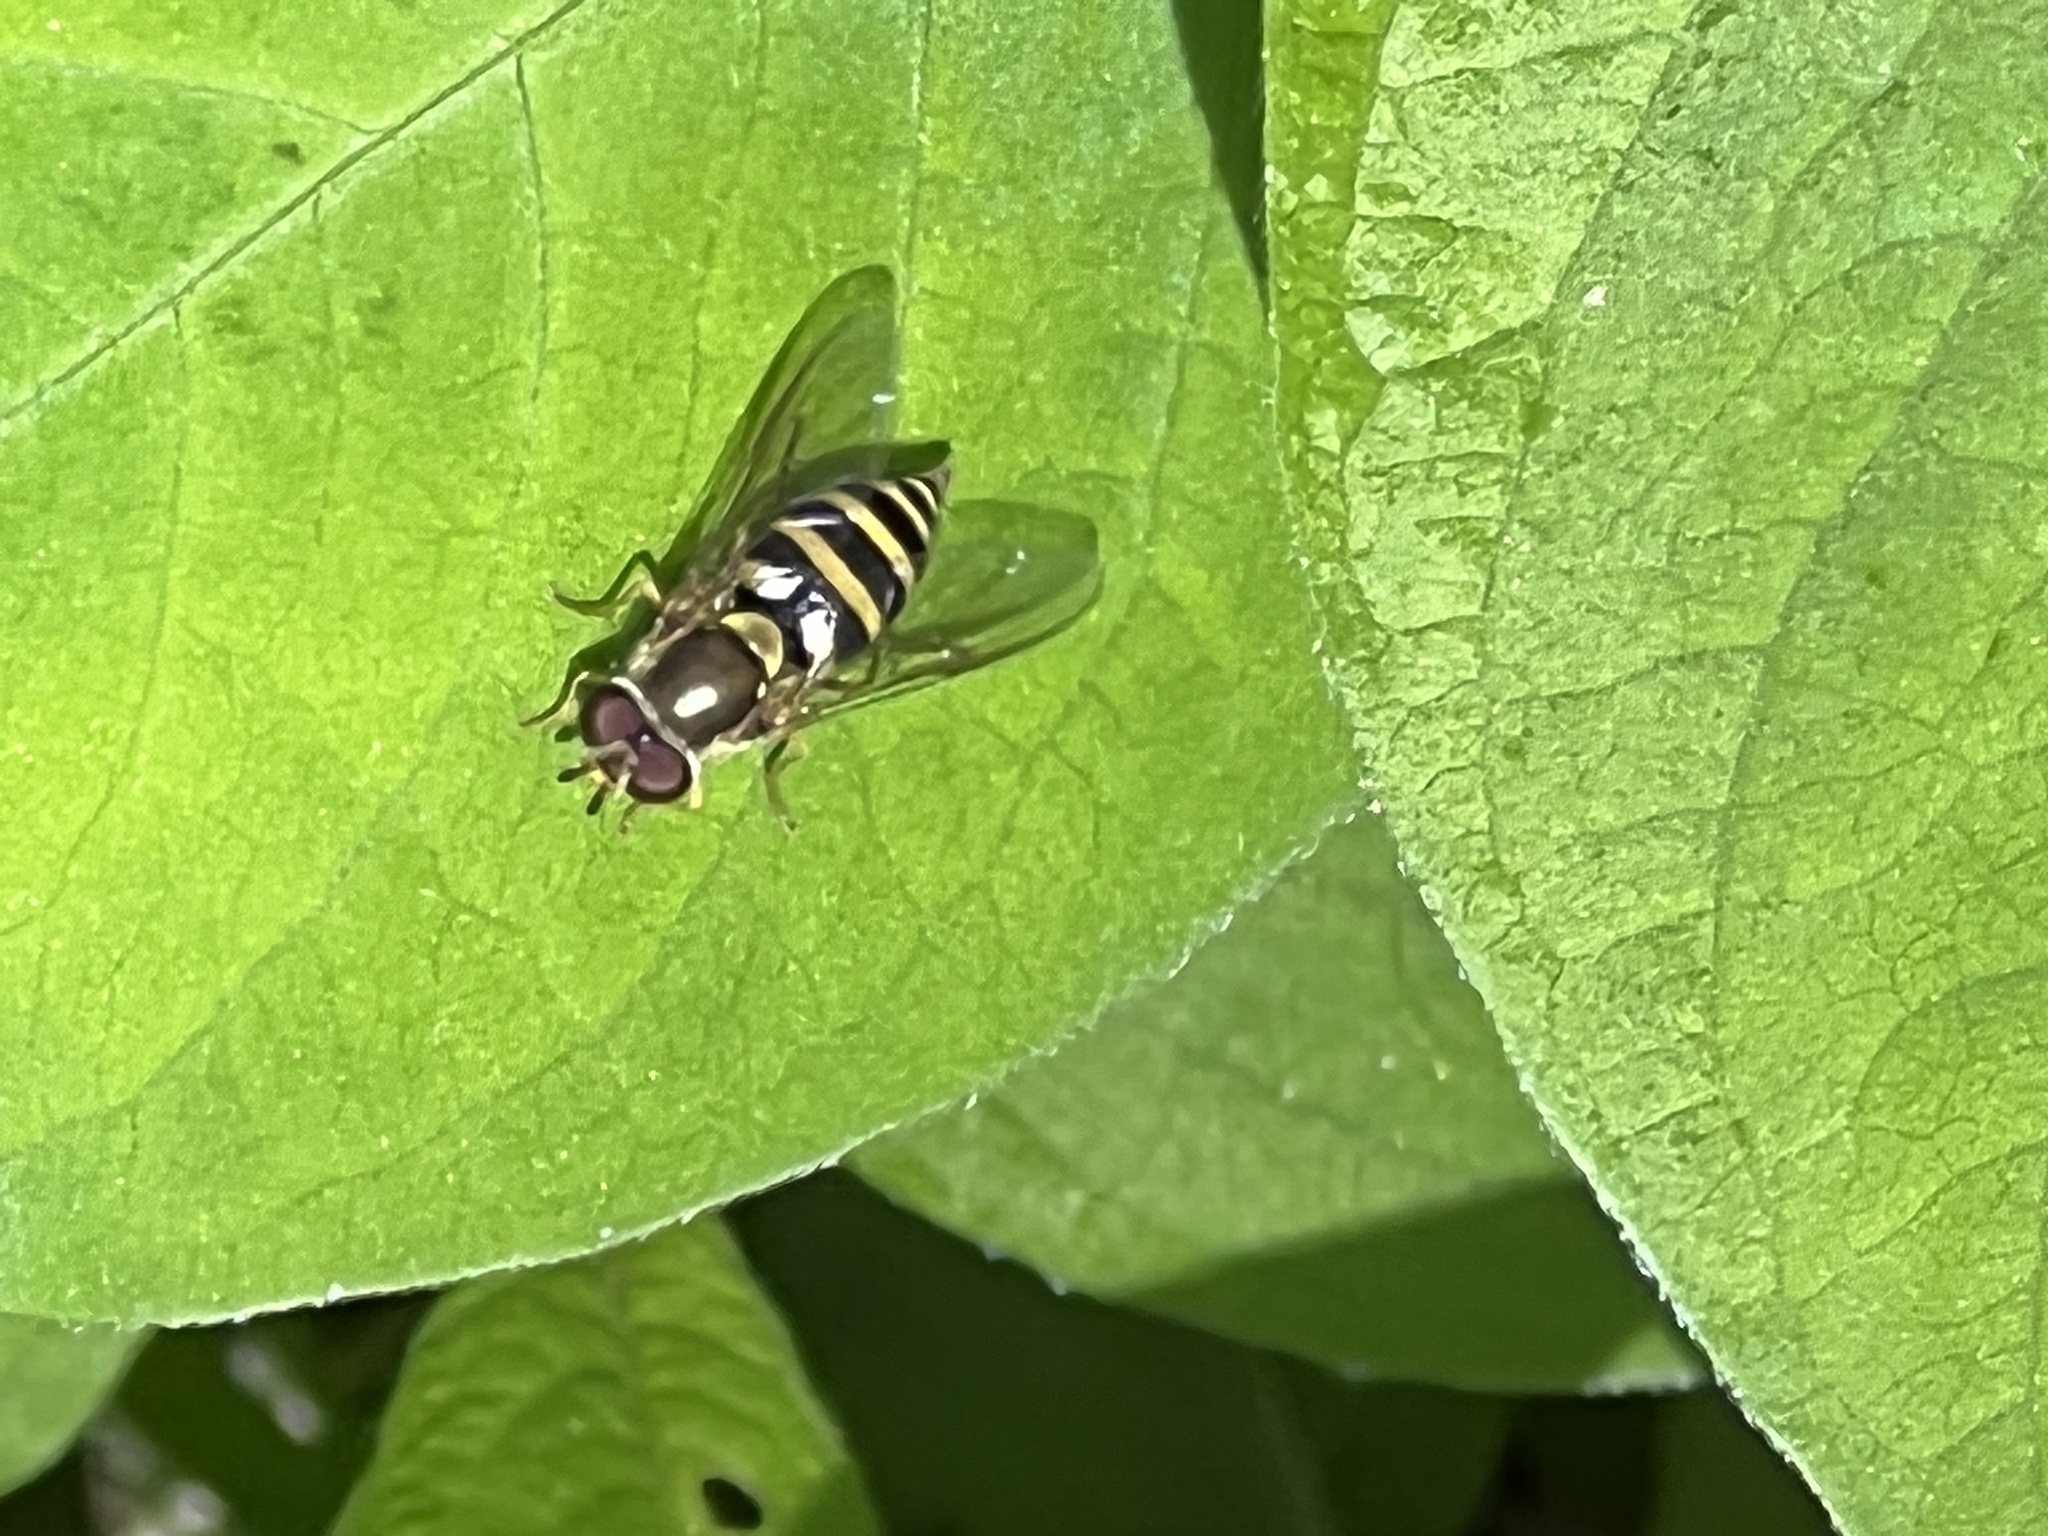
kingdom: Animalia
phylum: Arthropoda
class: Insecta
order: Diptera
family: Syrphidae
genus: Syrphus
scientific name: Syrphus
